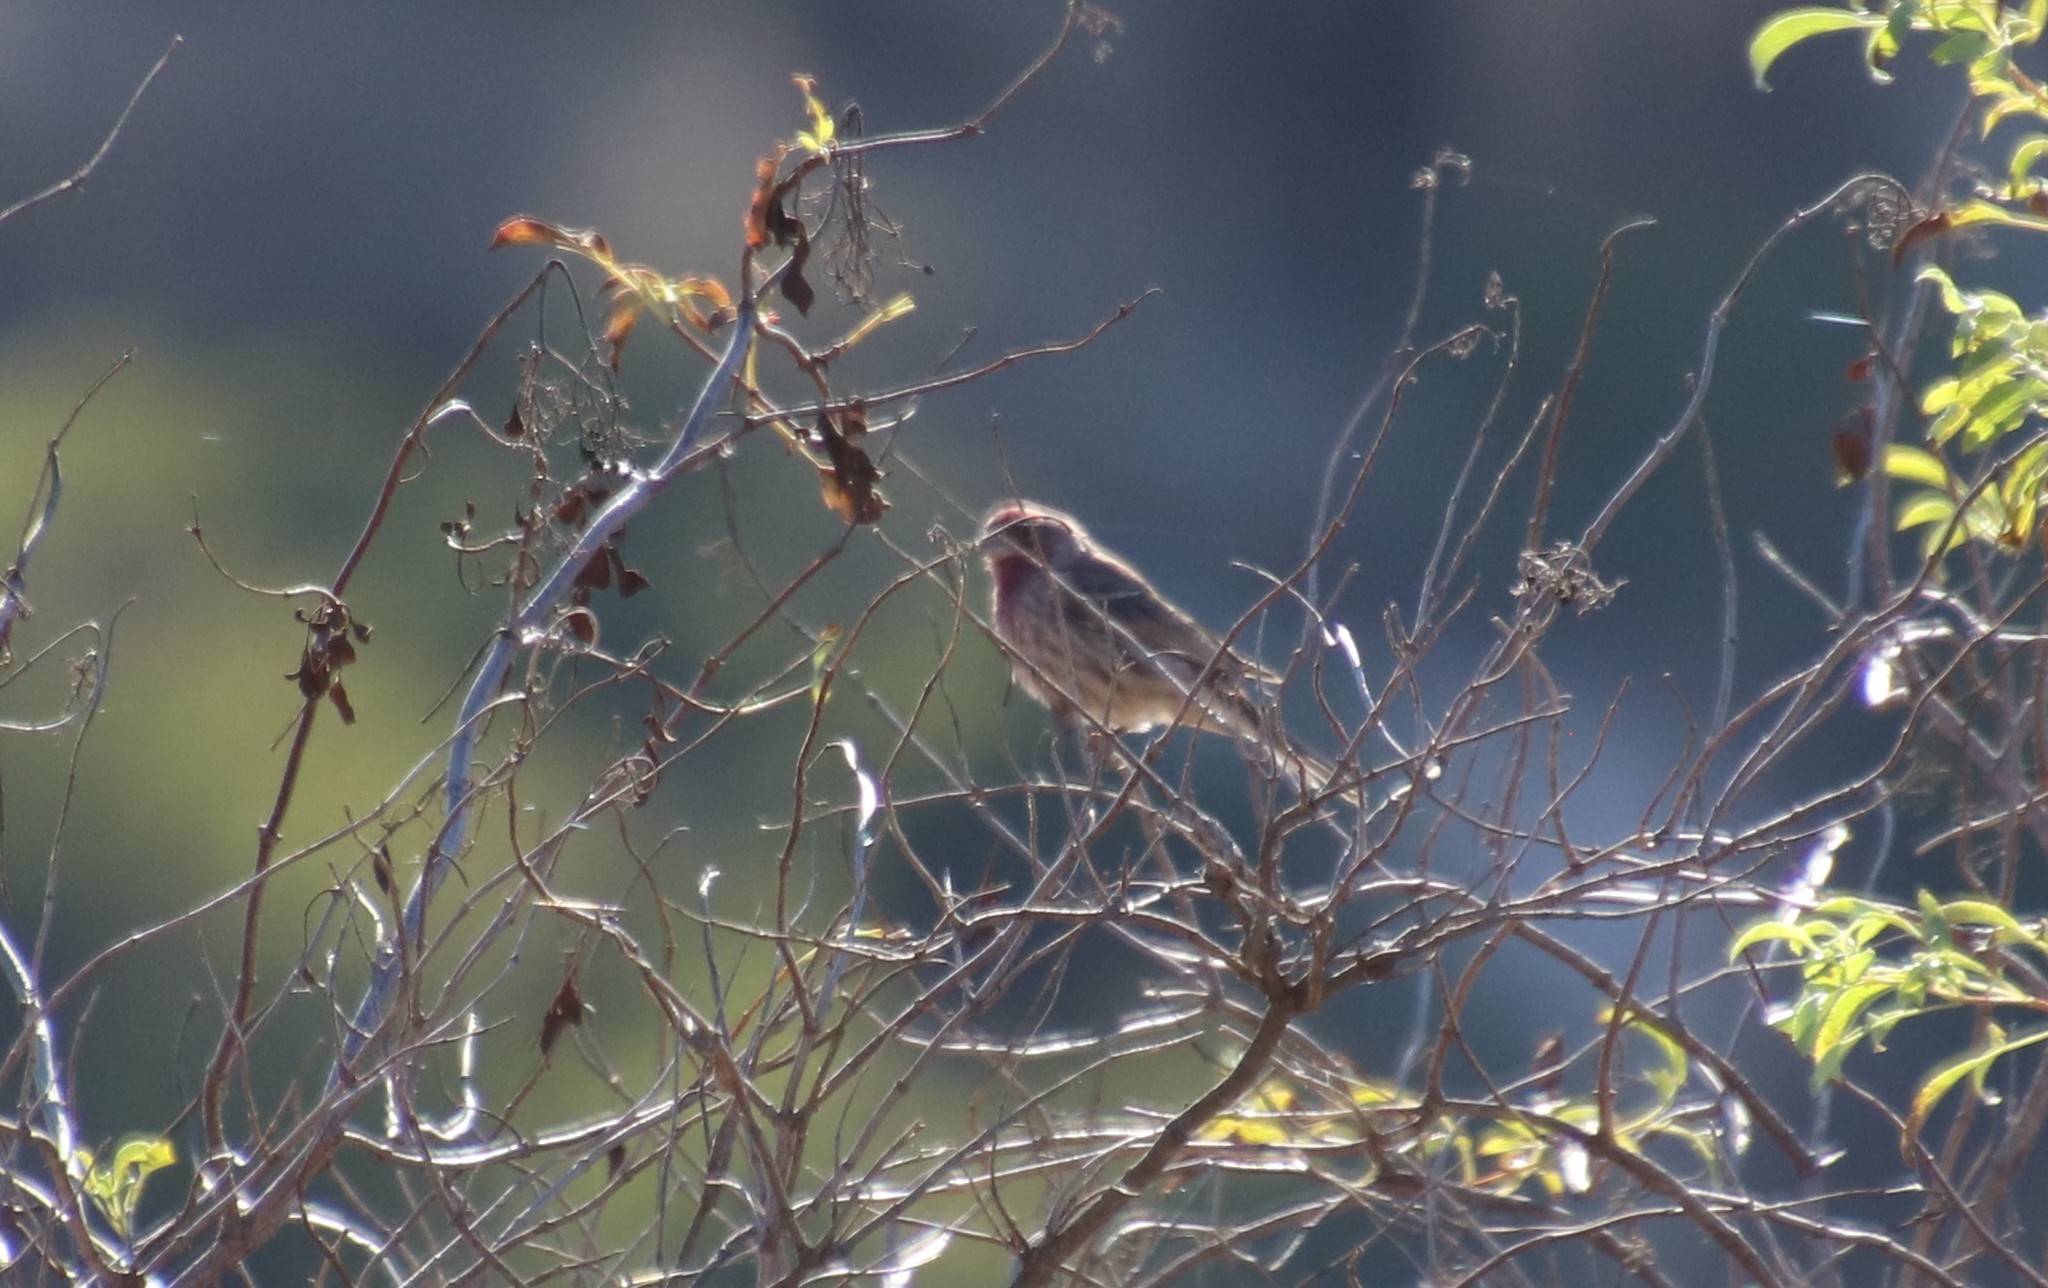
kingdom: Animalia
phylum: Chordata
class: Aves
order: Passeriformes
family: Fringillidae
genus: Haemorhous
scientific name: Haemorhous mexicanus
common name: House finch
